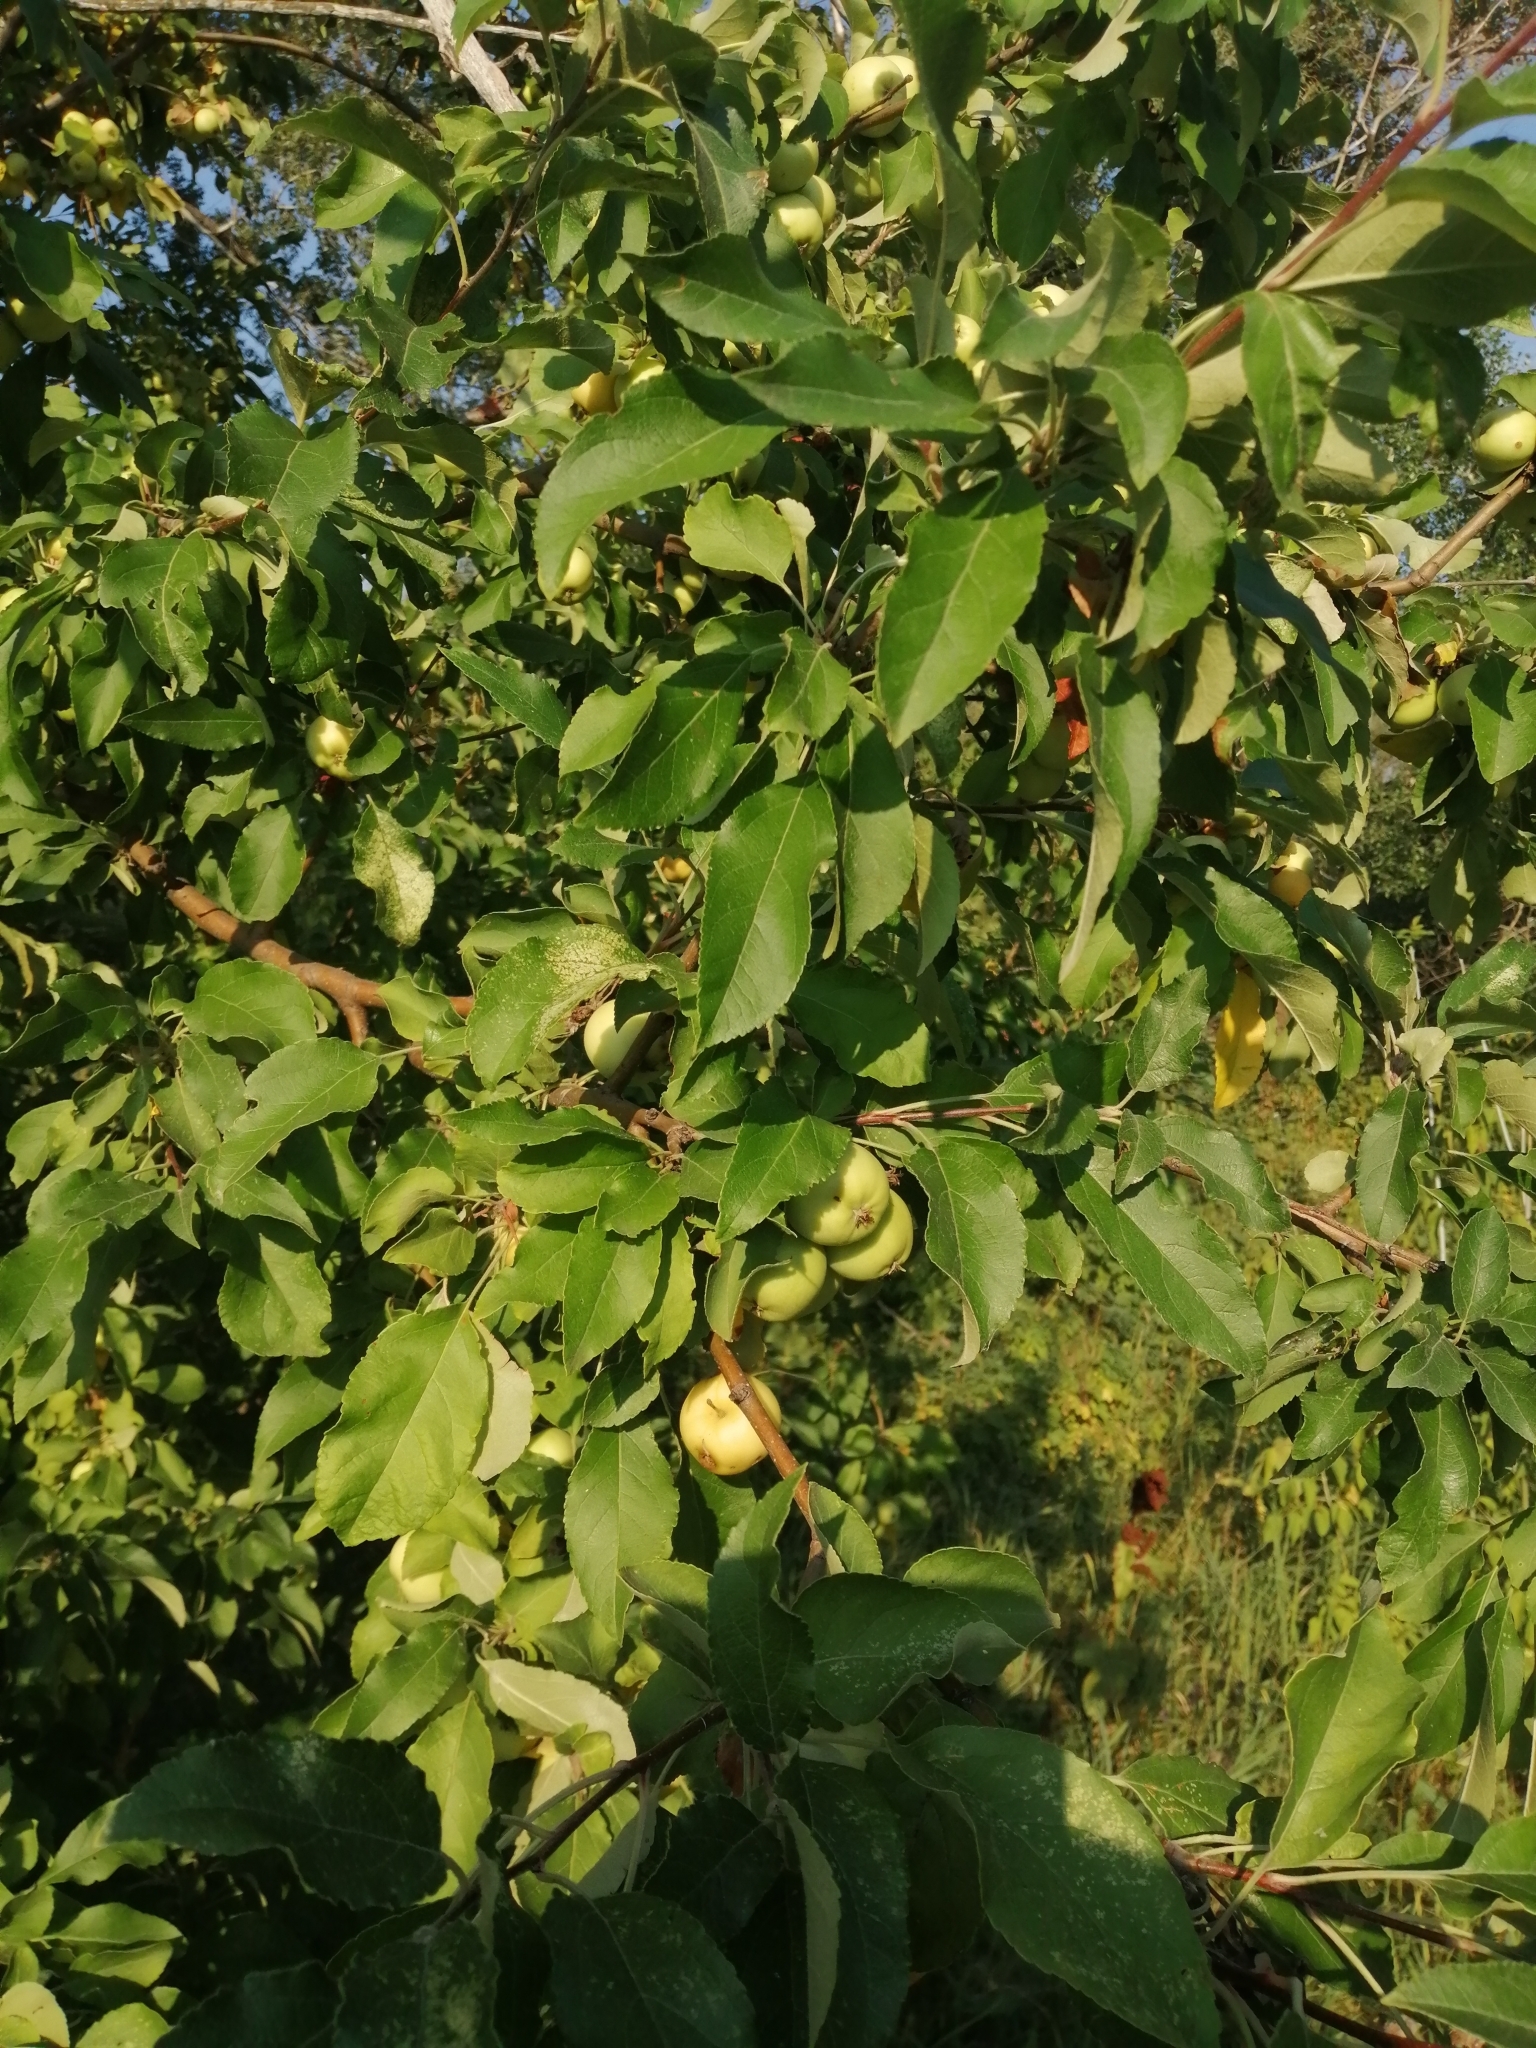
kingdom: Plantae
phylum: Tracheophyta
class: Magnoliopsida
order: Rosales
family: Rosaceae
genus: Malus
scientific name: Malus domestica
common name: Apple
